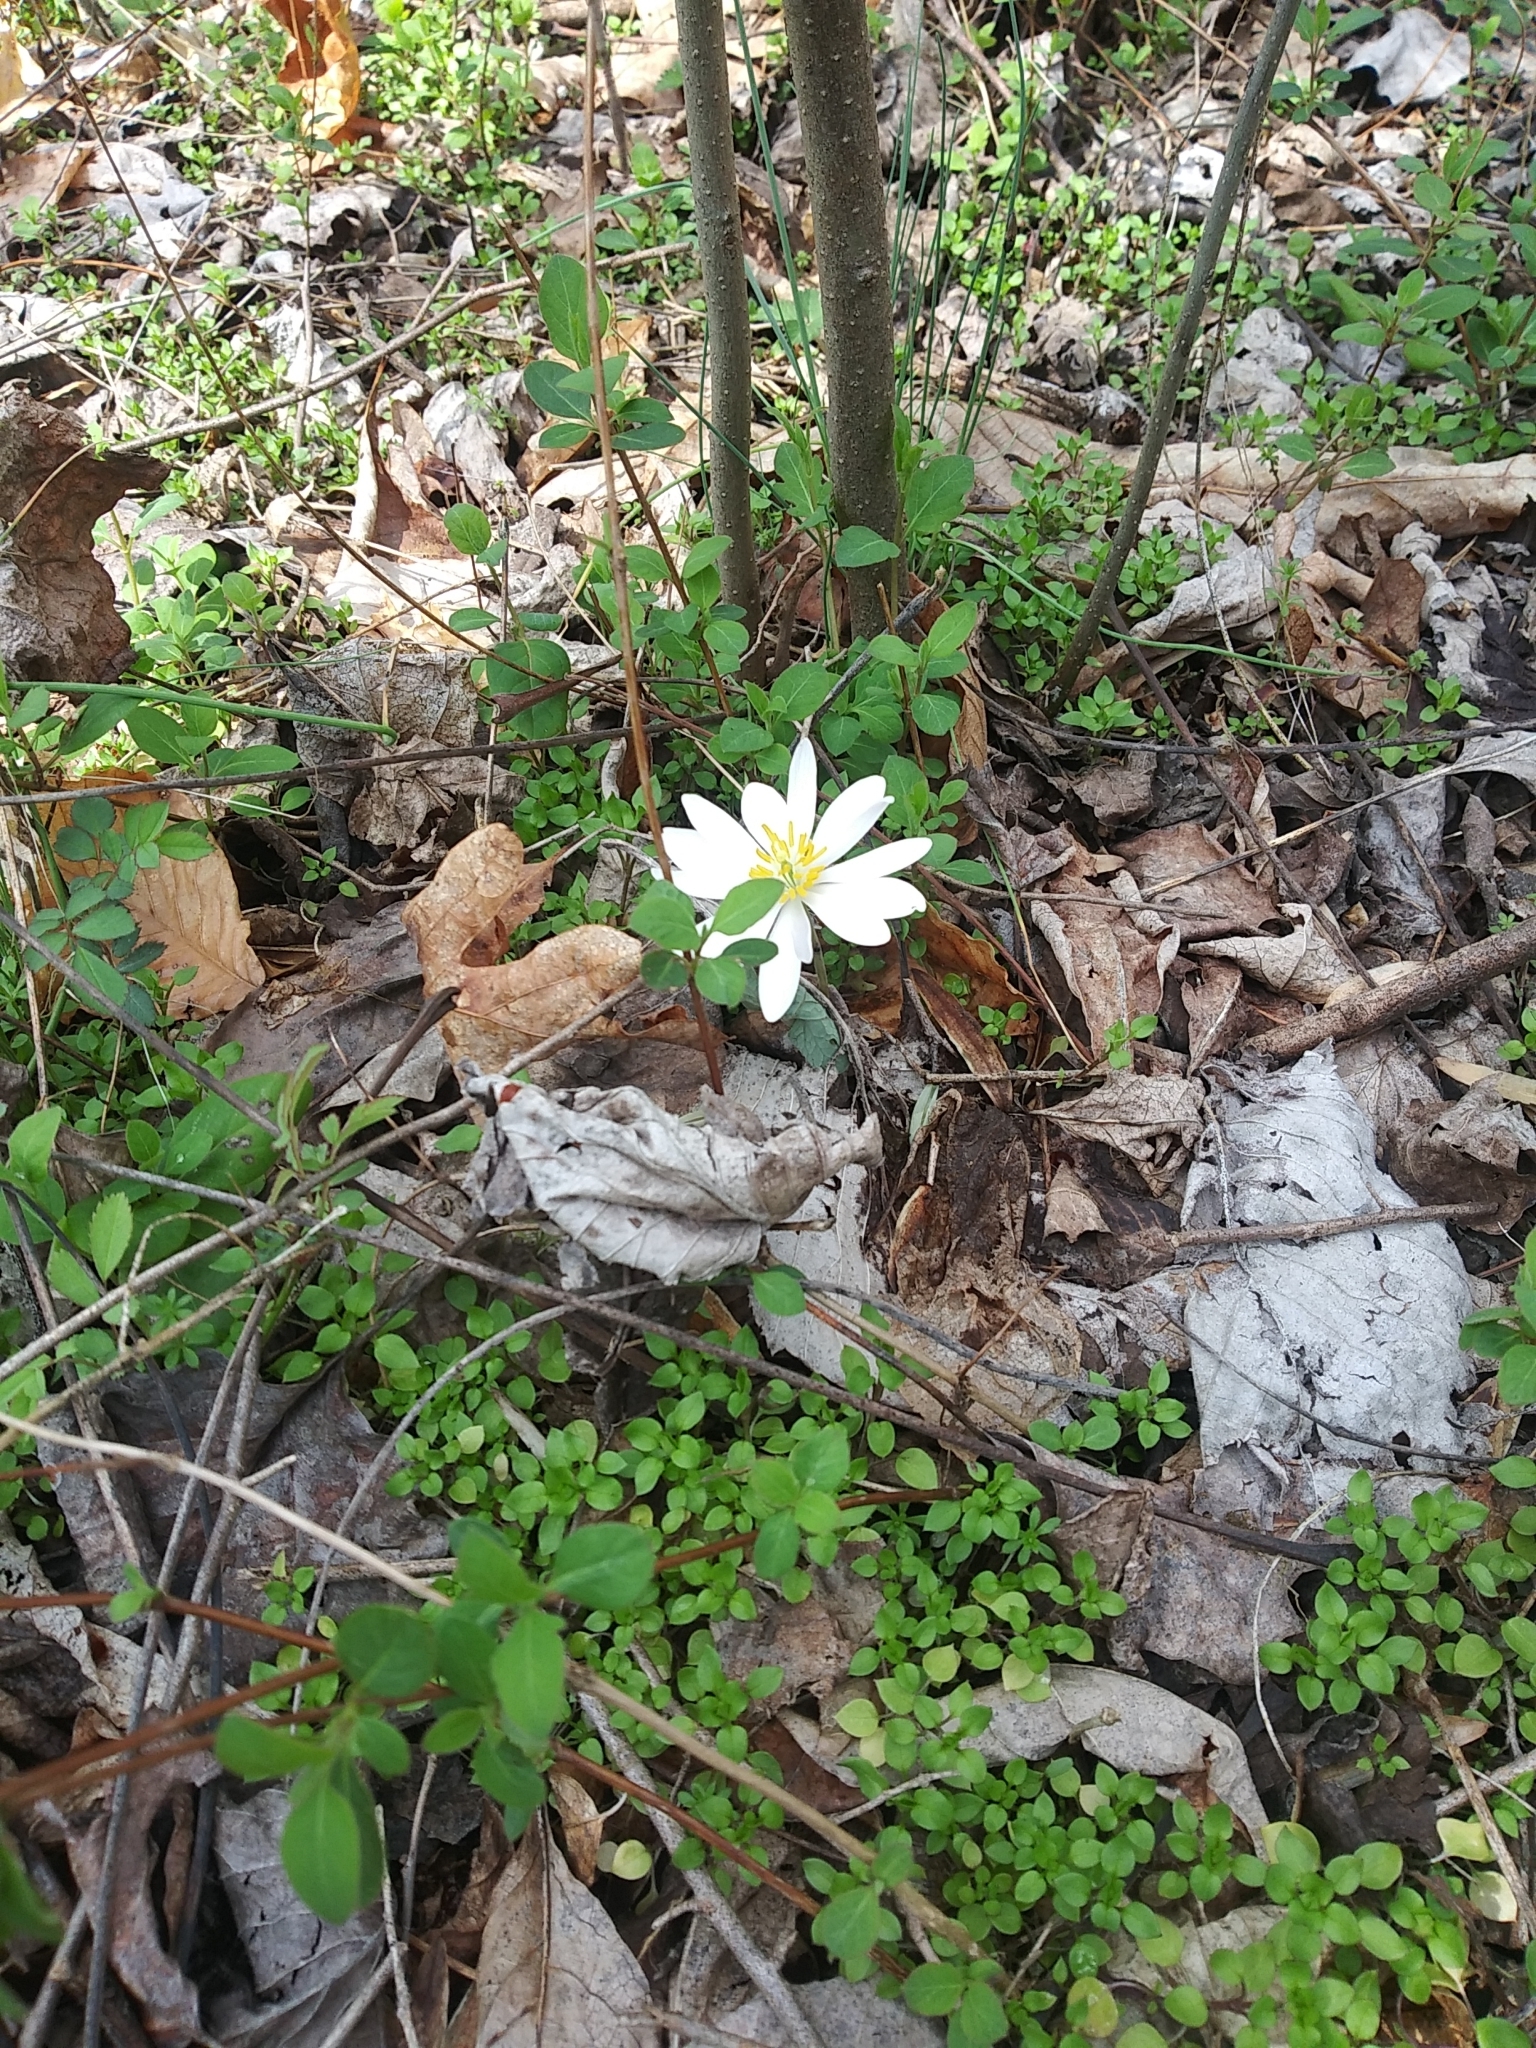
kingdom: Plantae
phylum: Tracheophyta
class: Magnoliopsida
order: Ranunculales
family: Papaveraceae
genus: Sanguinaria
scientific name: Sanguinaria canadensis
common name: Bloodroot
